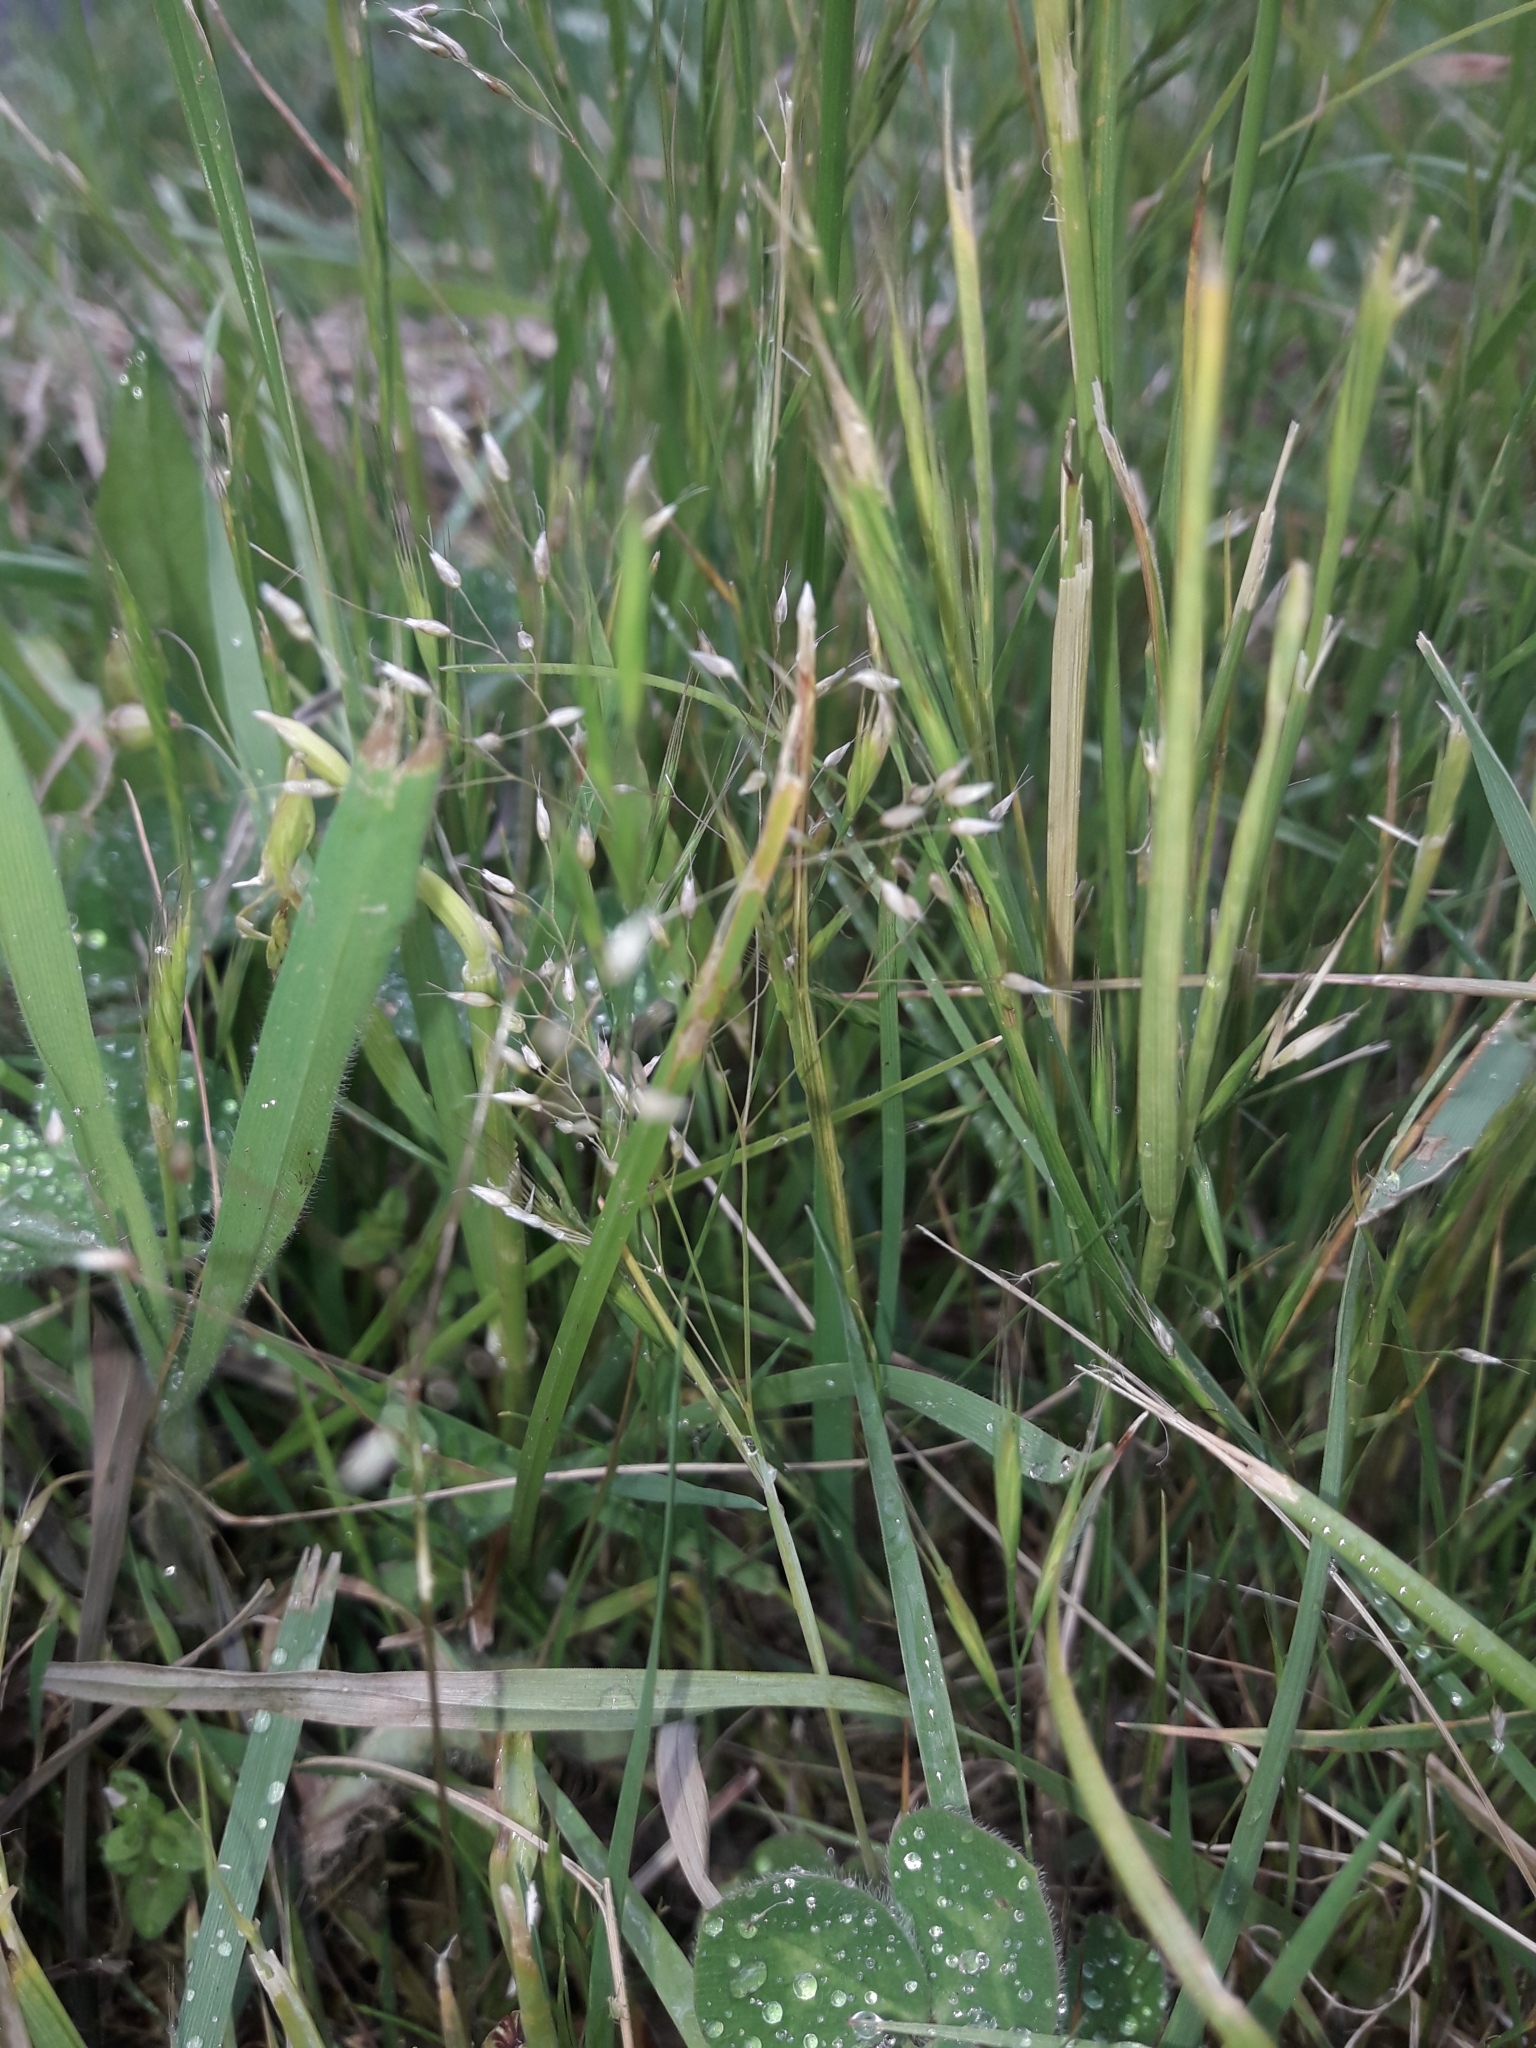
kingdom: Plantae
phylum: Tracheophyta
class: Liliopsida
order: Poales
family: Poaceae
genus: Aira
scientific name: Aira caryophyllea
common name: Silver hairgrass
